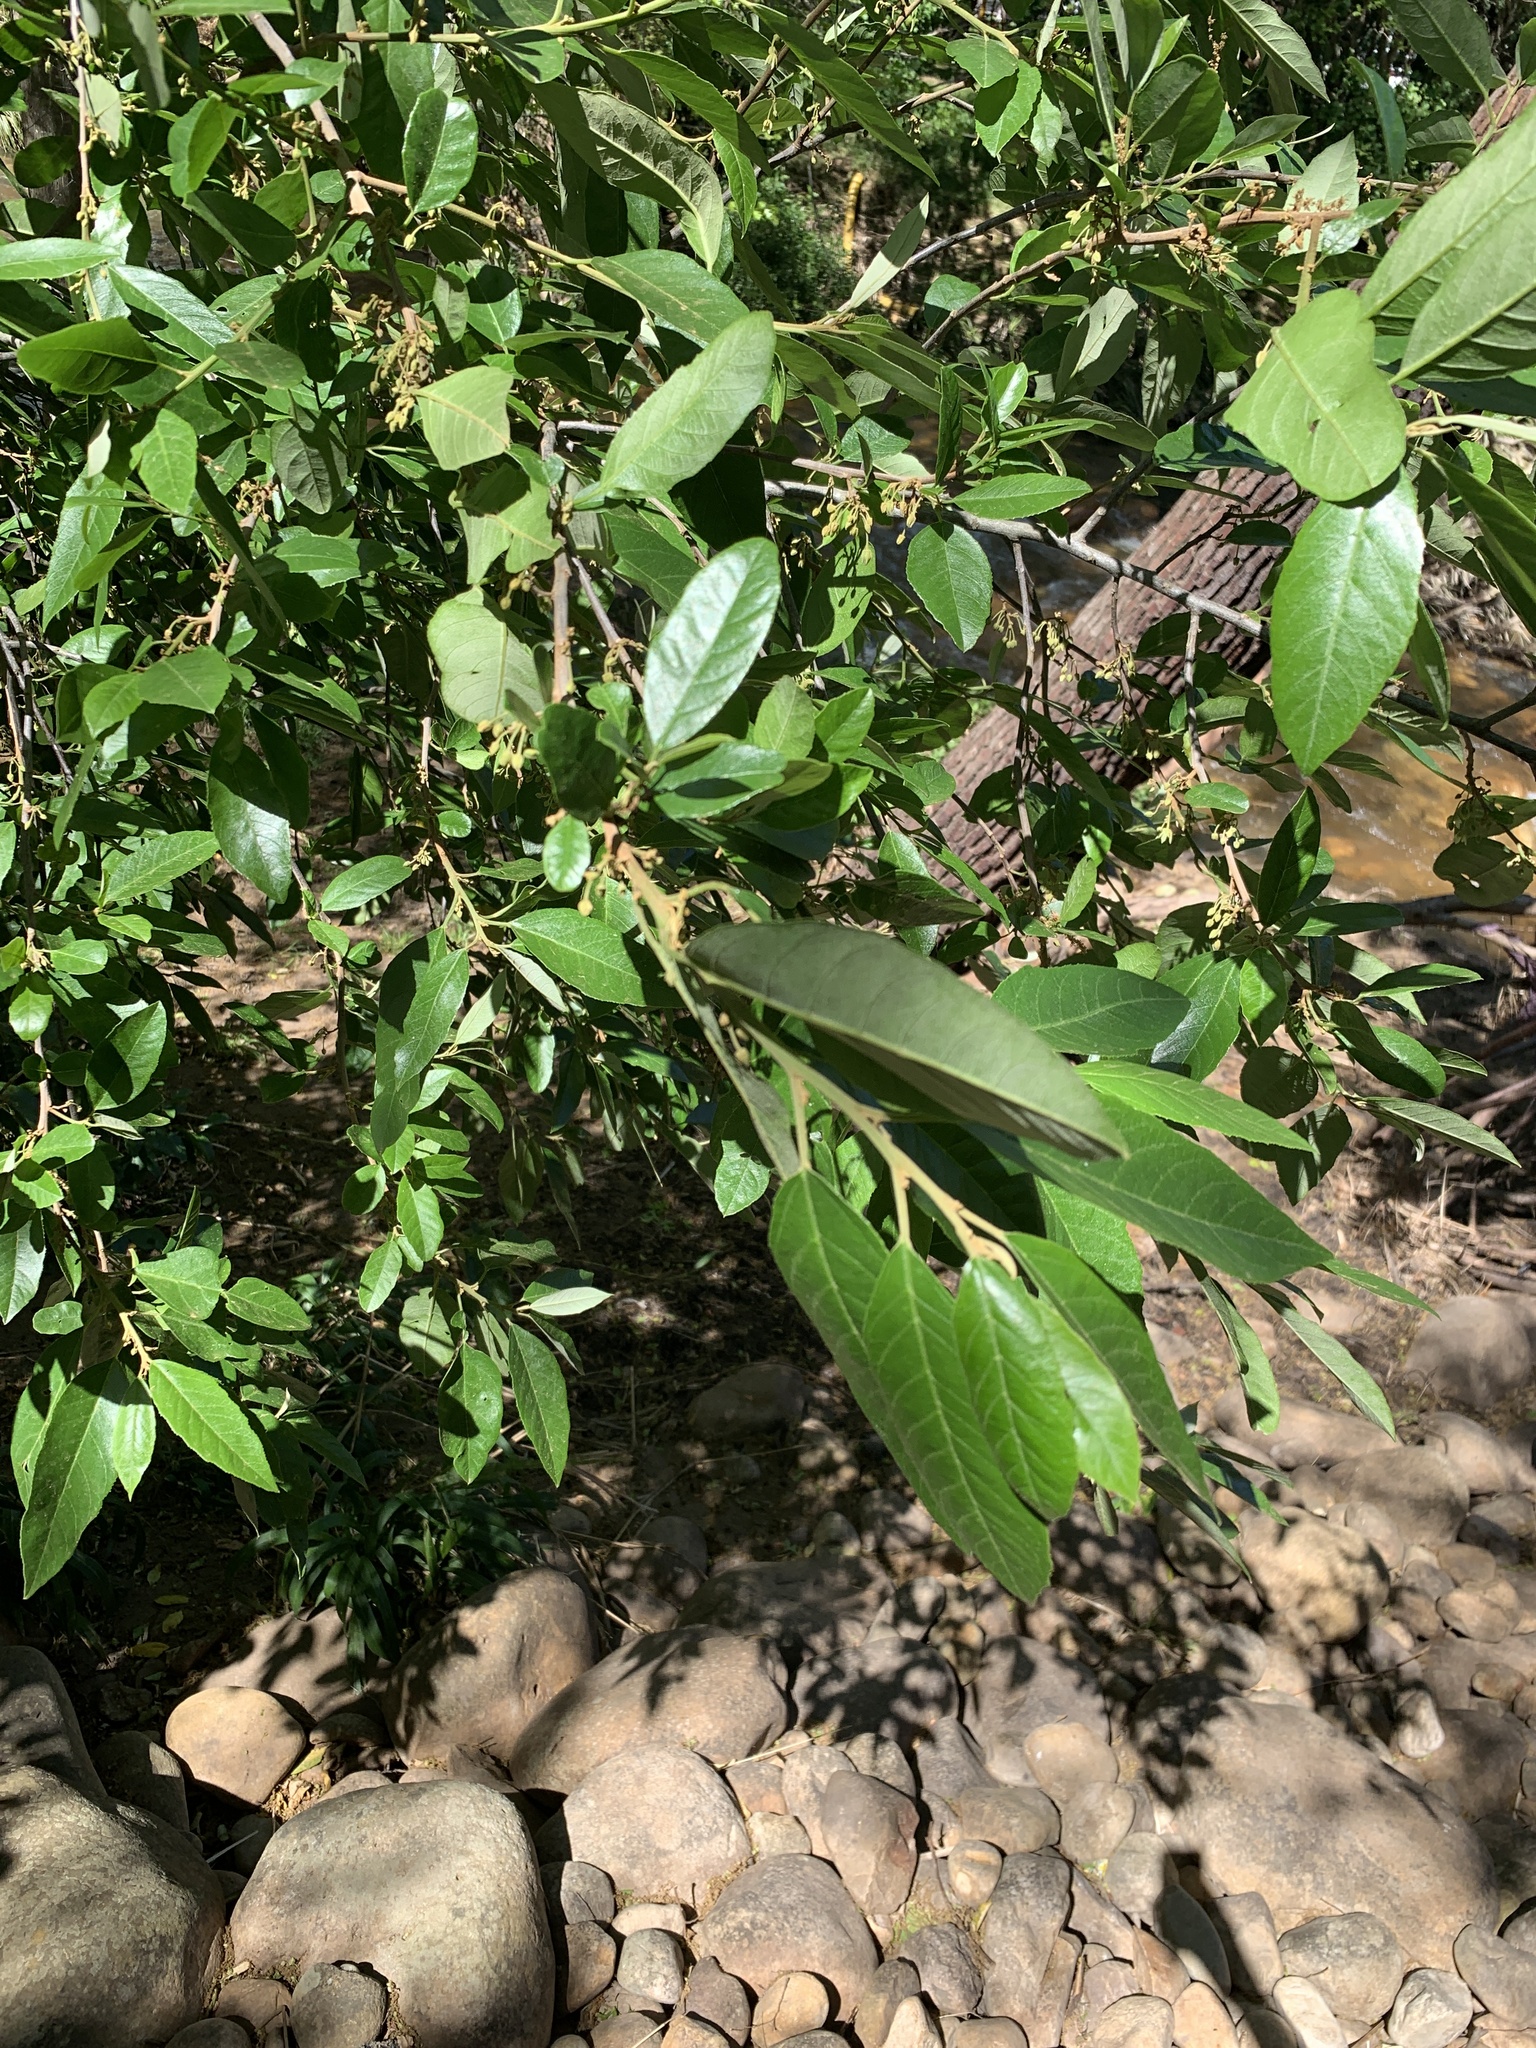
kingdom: Plantae
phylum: Tracheophyta
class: Magnoliopsida
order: Malpighiales
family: Achariaceae
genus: Kiggelaria
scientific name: Kiggelaria africana
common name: Wild peach
